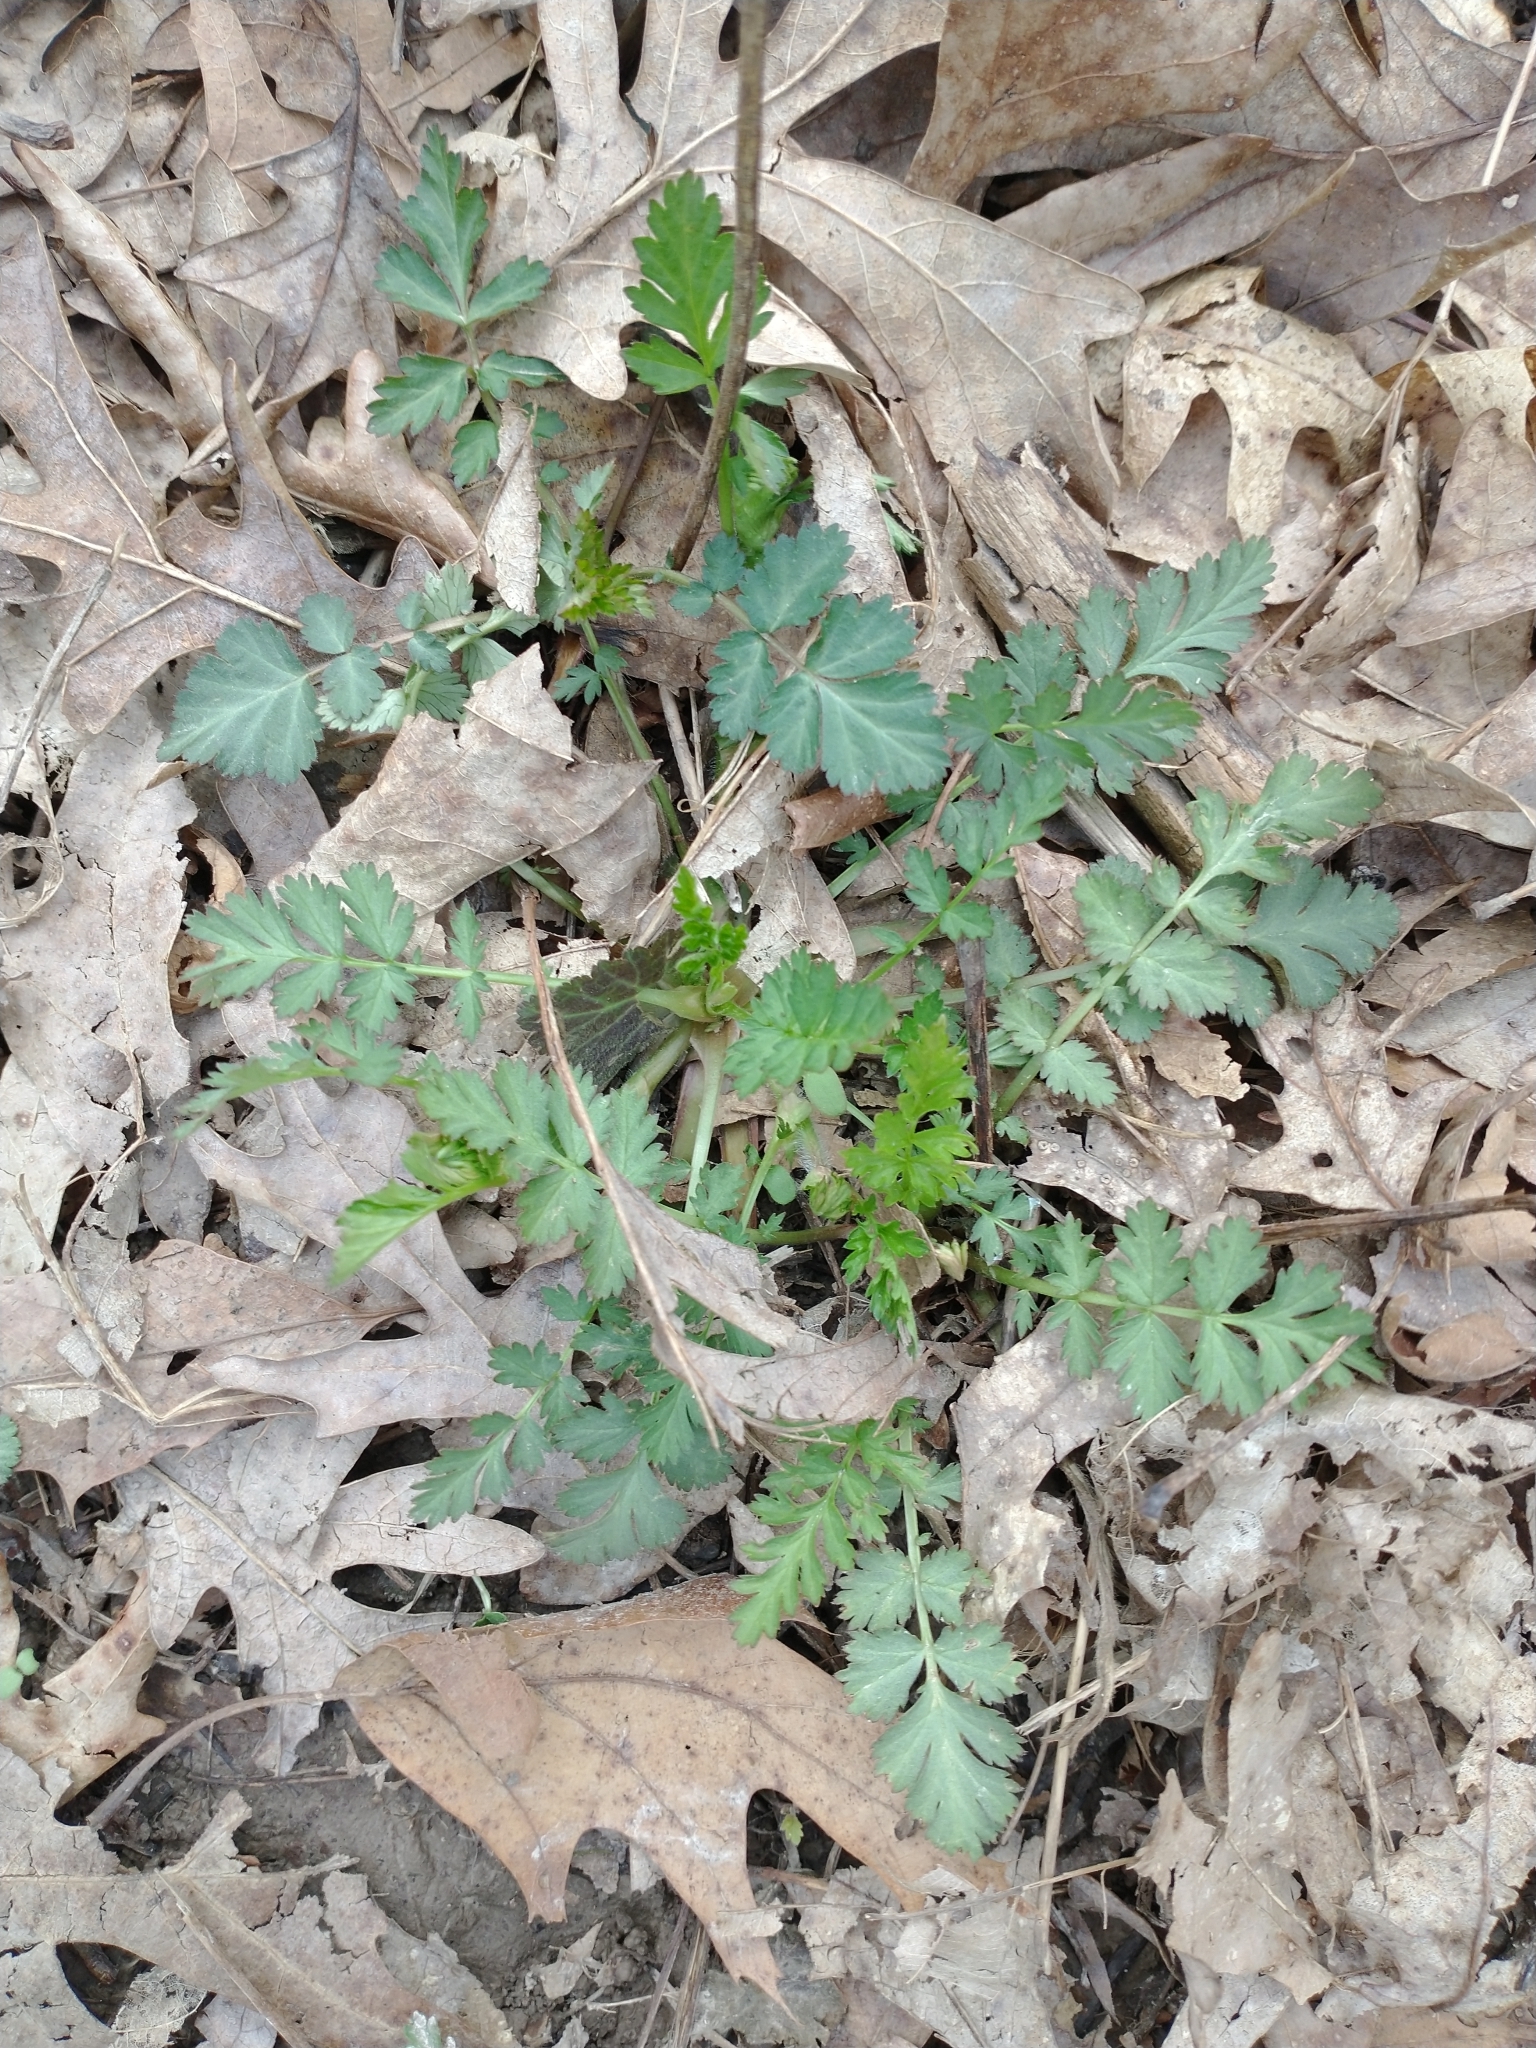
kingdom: Plantae
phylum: Tracheophyta
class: Magnoliopsida
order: Rosales
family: Rosaceae
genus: Geum
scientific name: Geum canadense
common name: White avens
